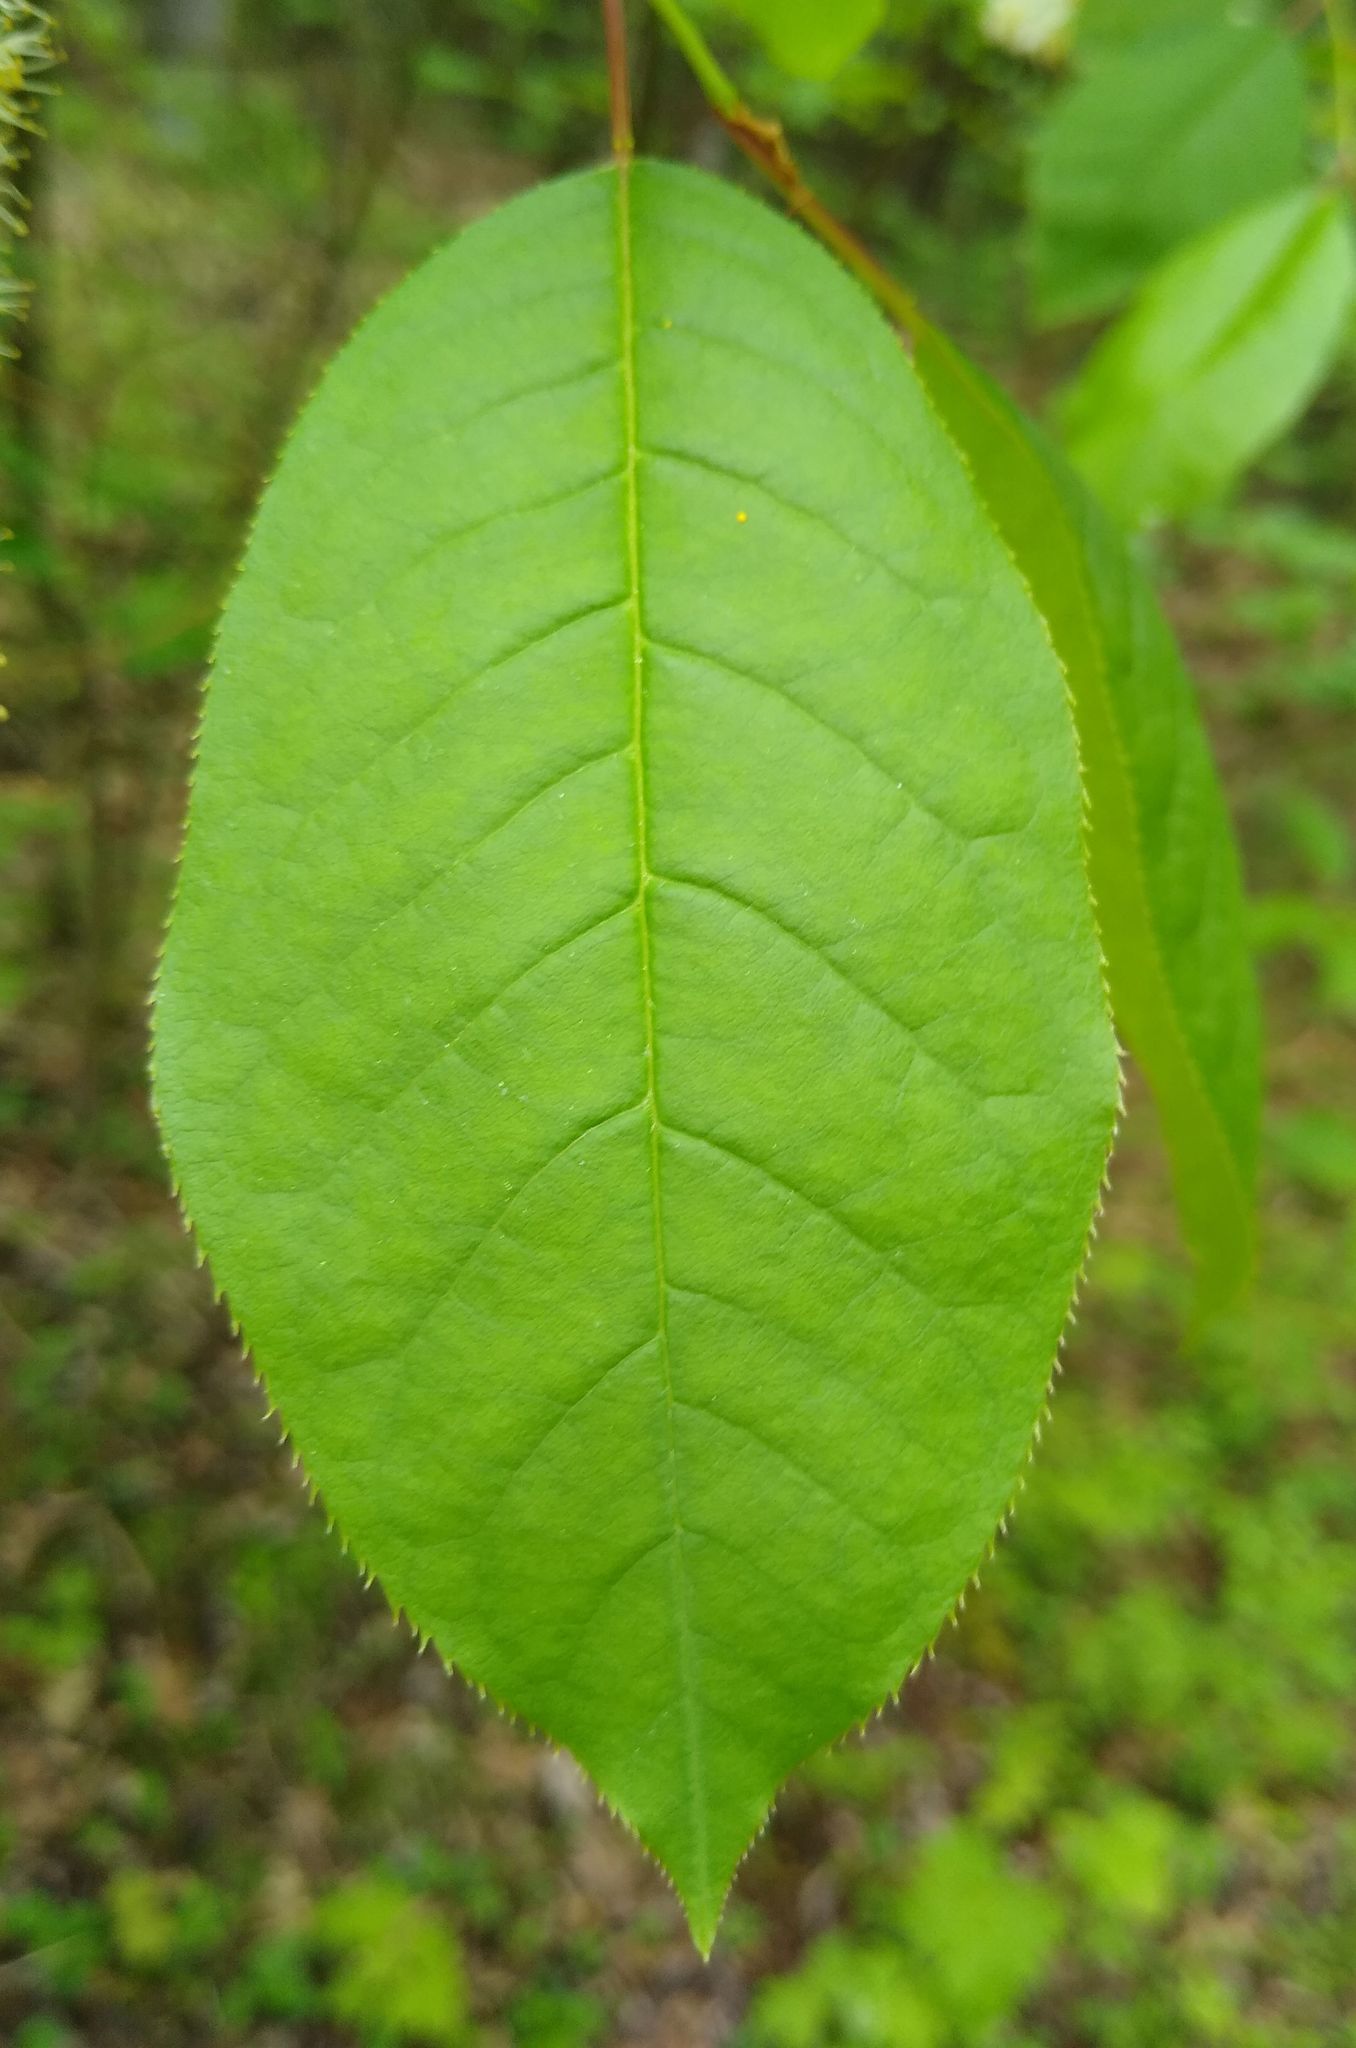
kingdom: Plantae
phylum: Tracheophyta
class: Magnoliopsida
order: Rosales
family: Rosaceae
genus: Prunus
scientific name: Prunus virginiana
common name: Chokecherry
